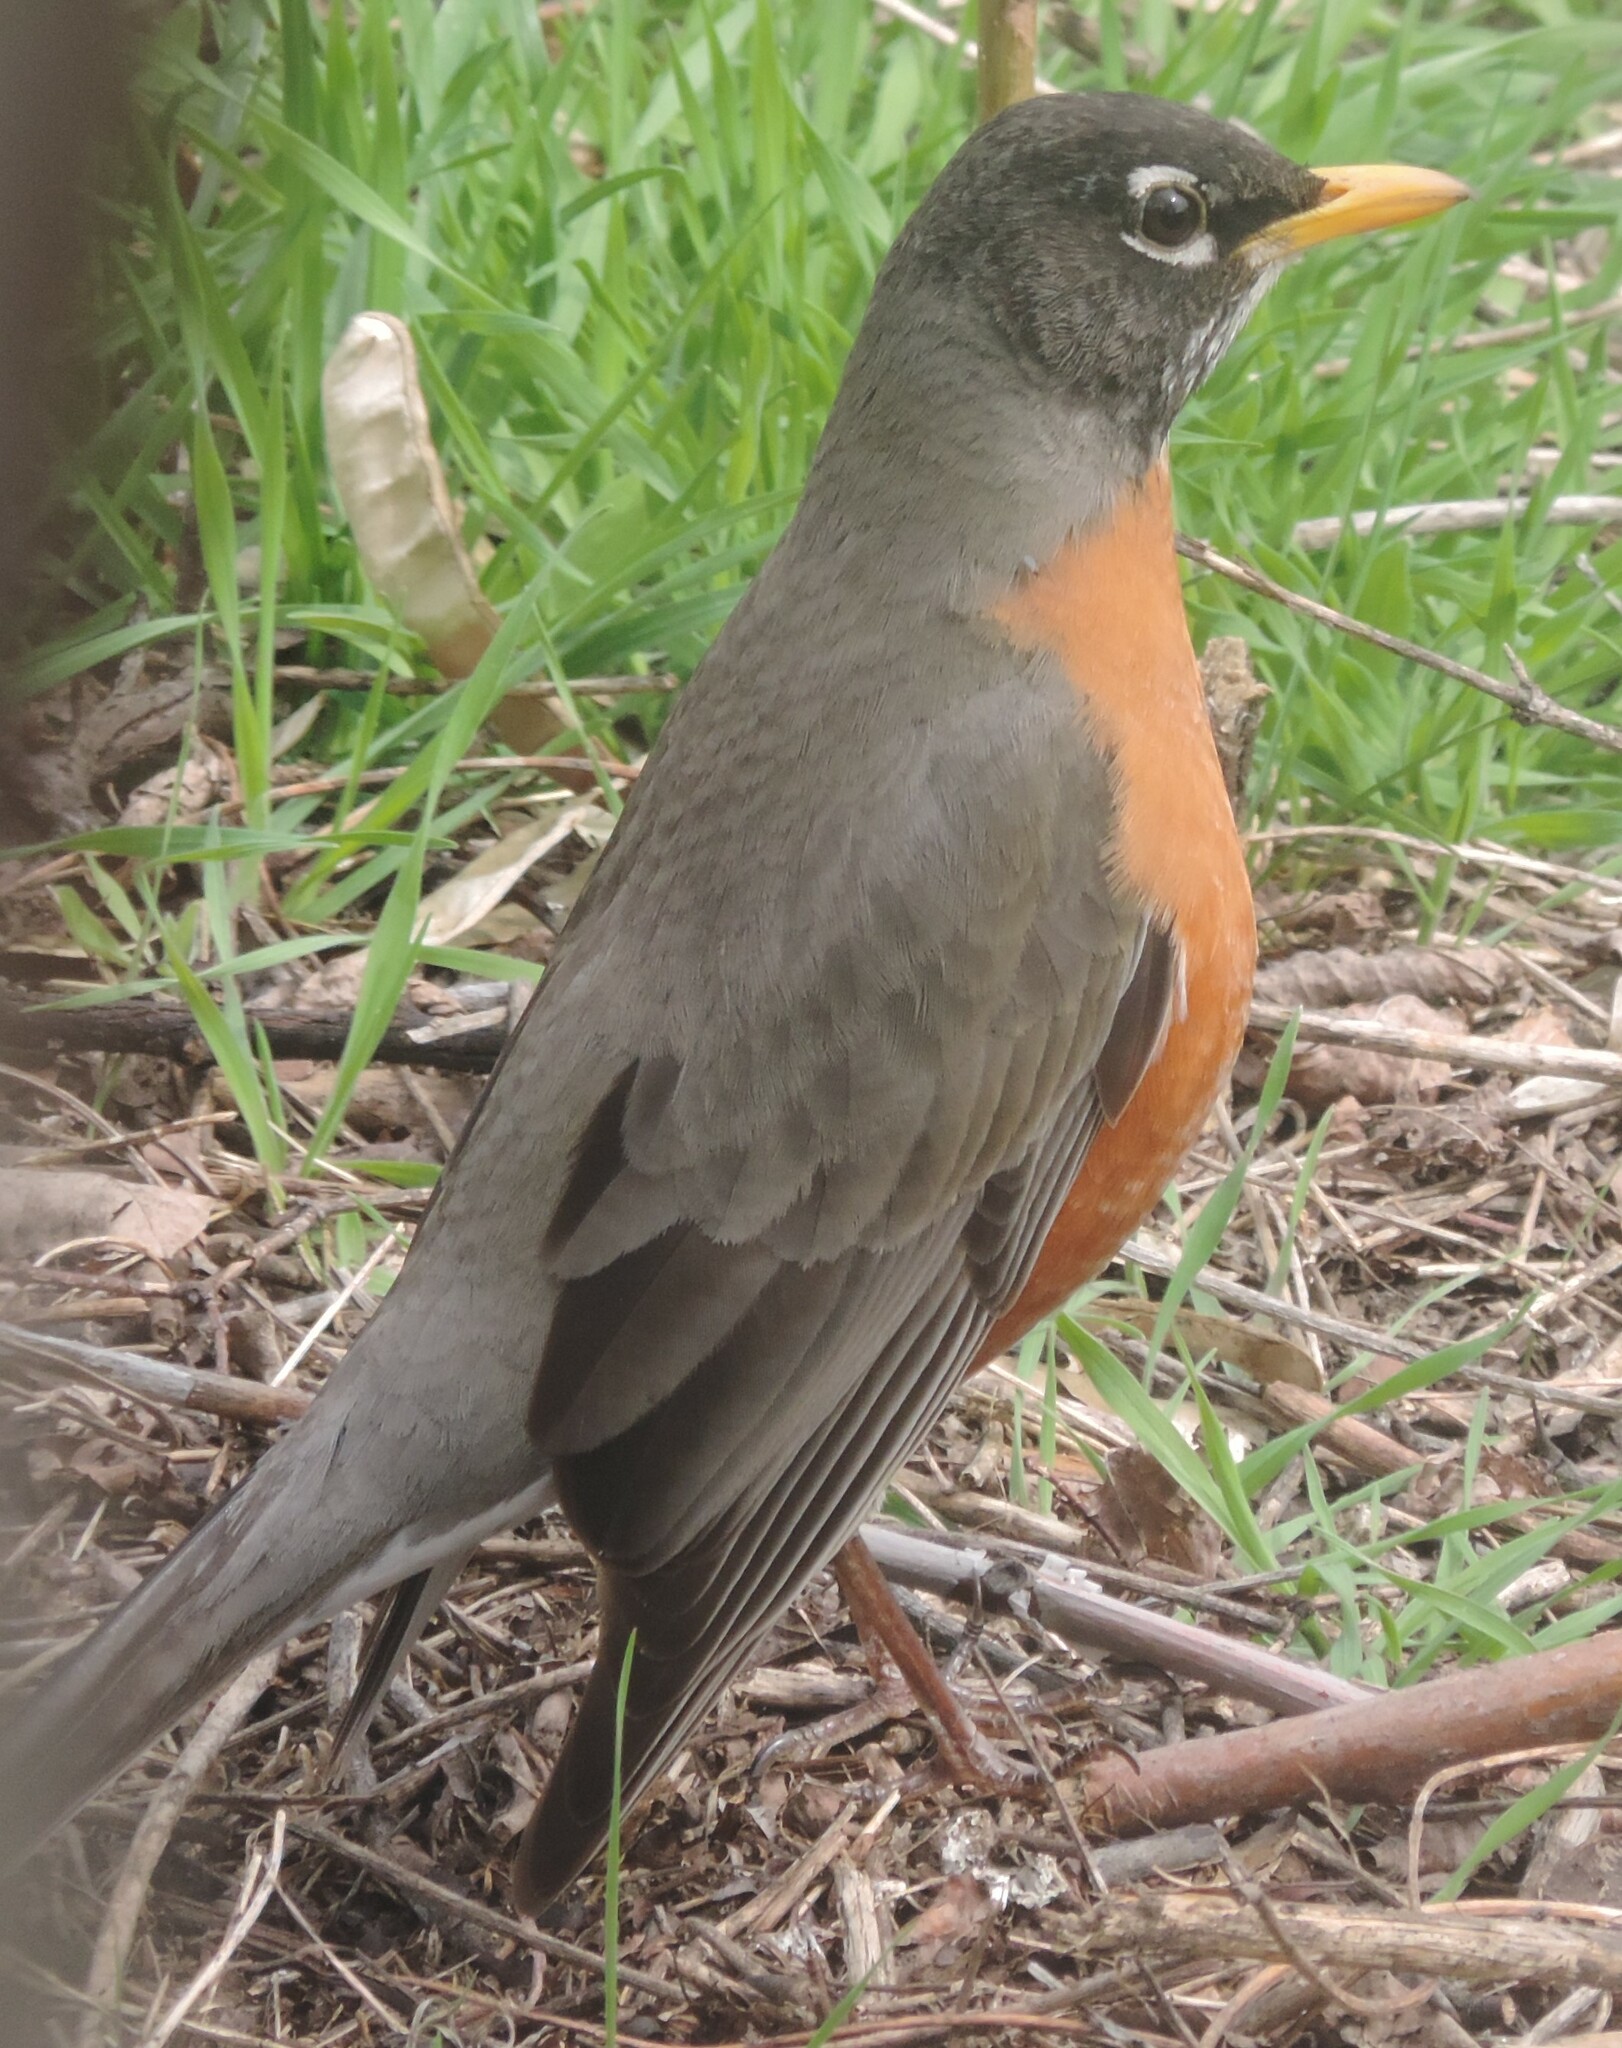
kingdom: Animalia
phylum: Chordata
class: Aves
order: Passeriformes
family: Turdidae
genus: Turdus
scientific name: Turdus migratorius
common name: American robin
